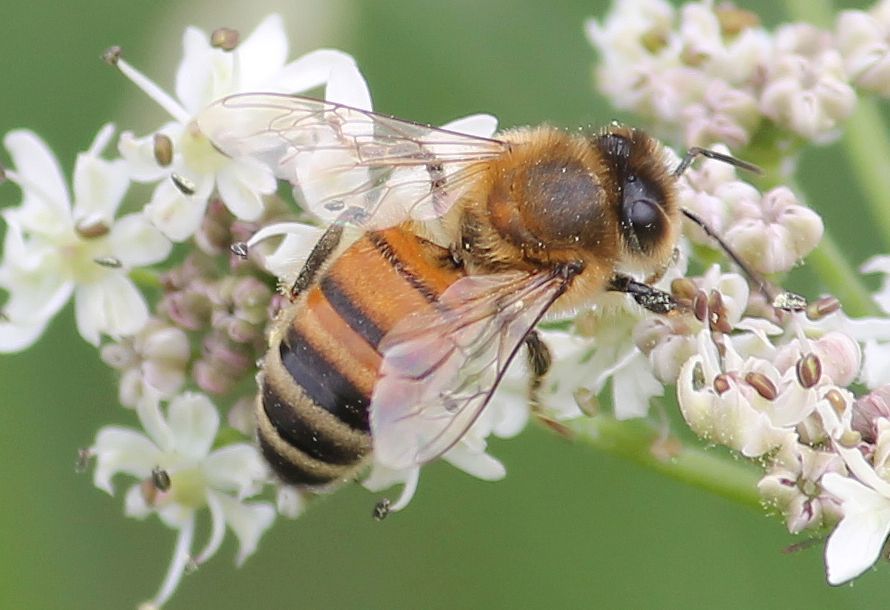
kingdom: Animalia
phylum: Arthropoda
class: Insecta
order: Hymenoptera
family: Apidae
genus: Apis
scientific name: Apis mellifera
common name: Honey bee
